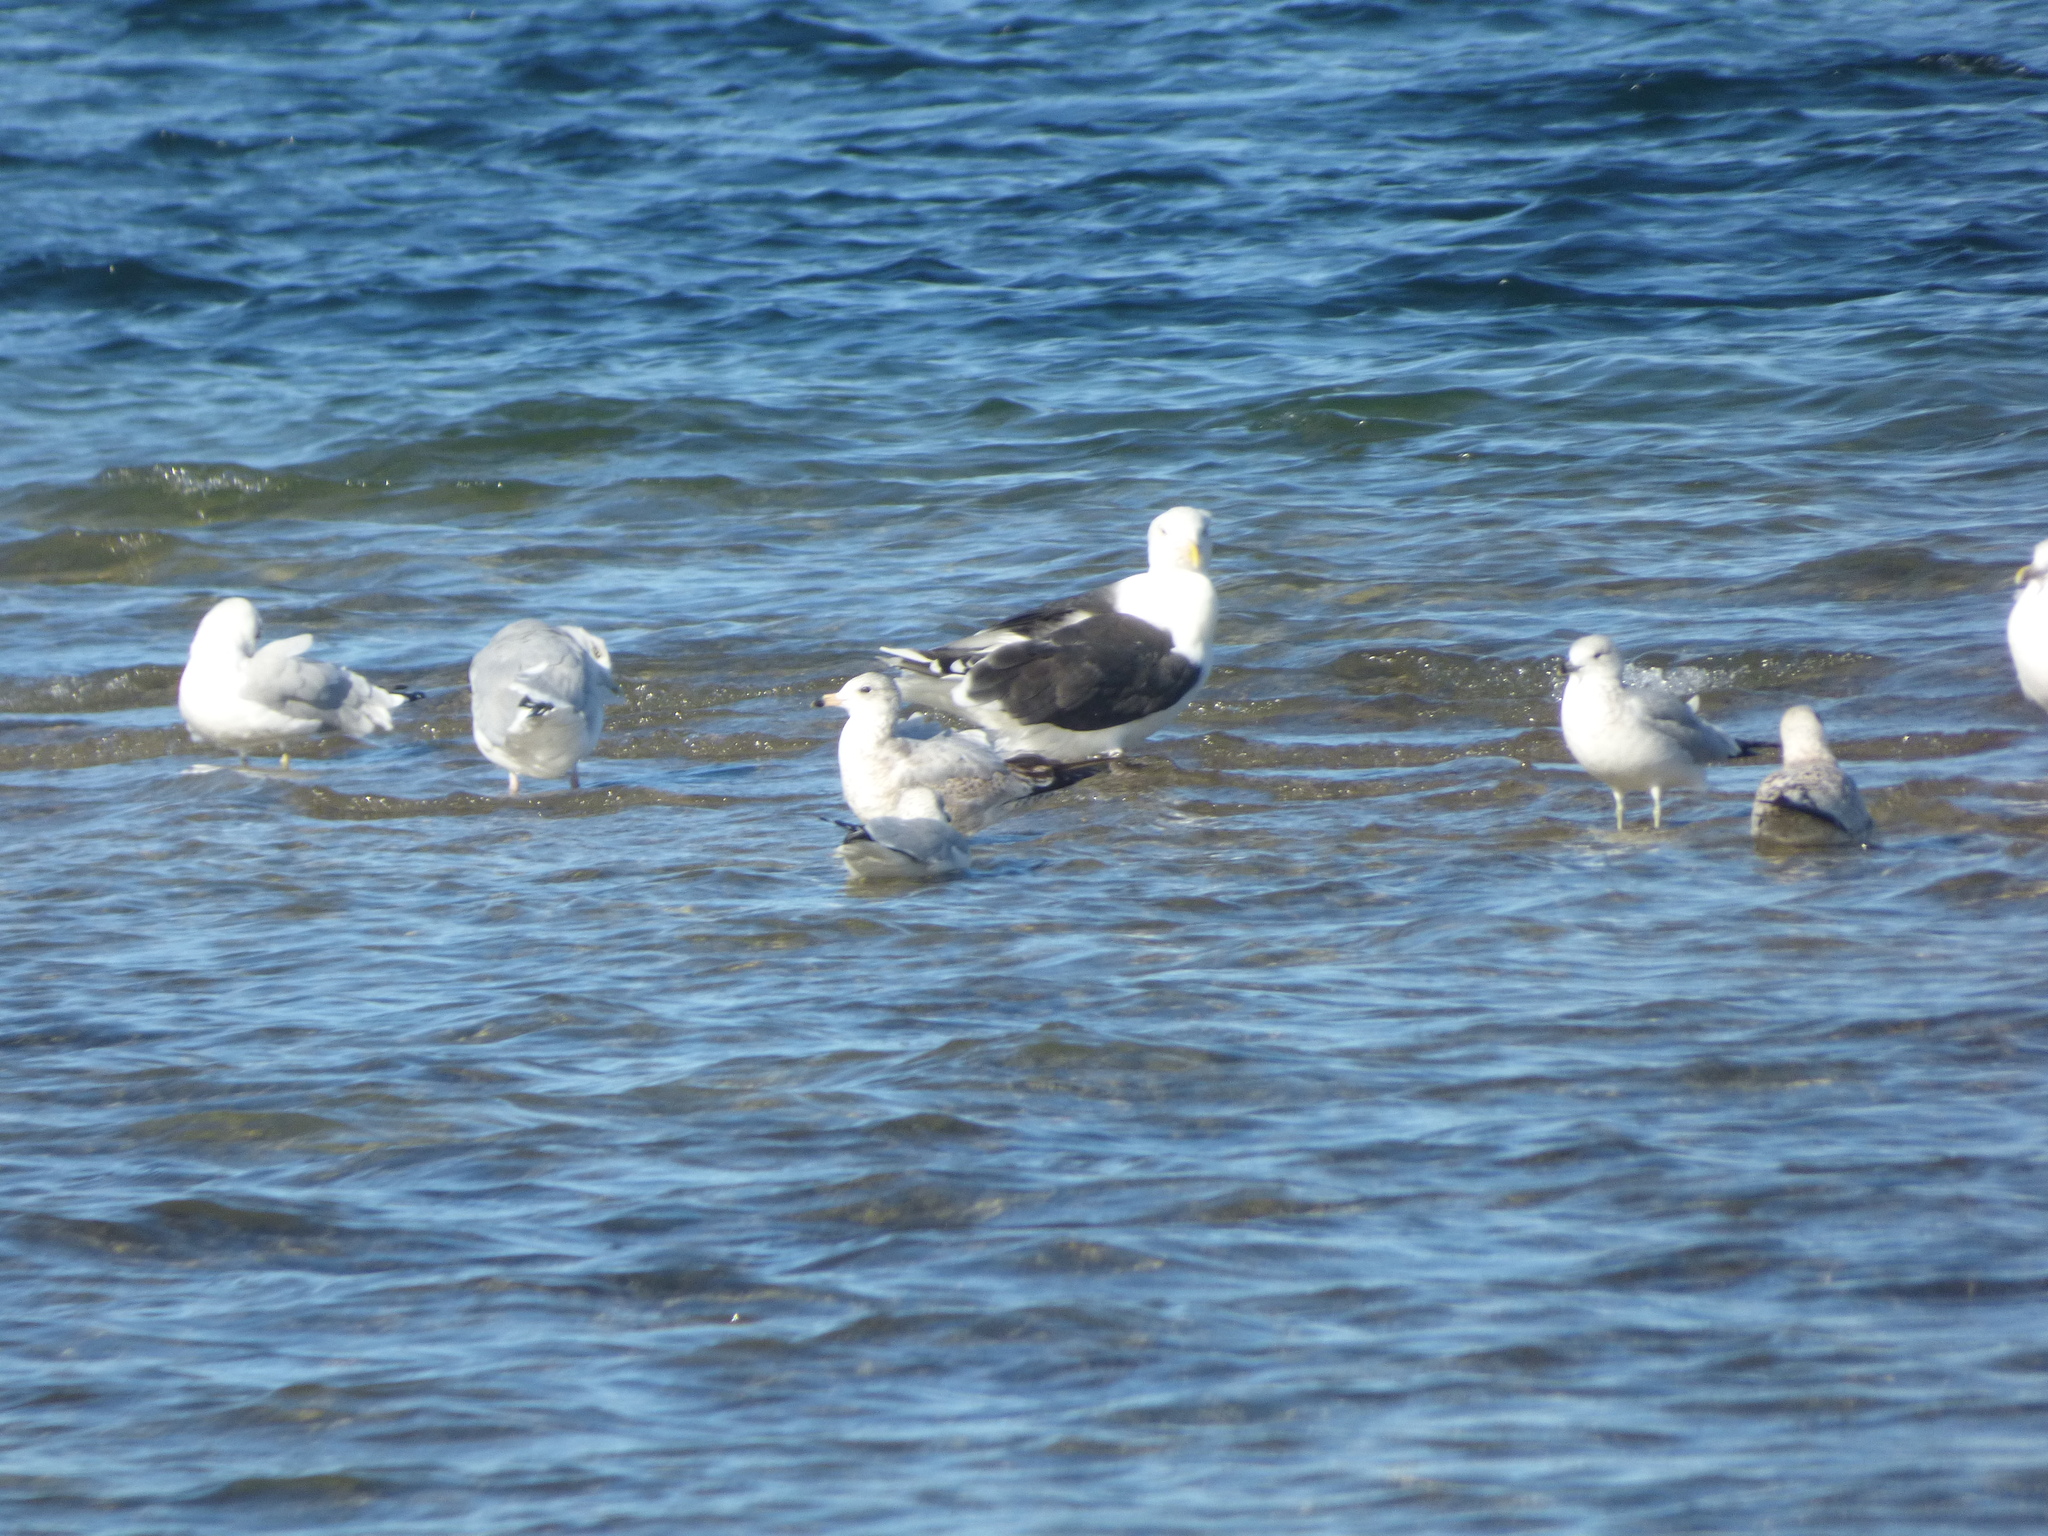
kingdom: Animalia
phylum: Chordata
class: Aves
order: Charadriiformes
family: Laridae
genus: Larus
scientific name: Larus delawarensis
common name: Ring-billed gull
